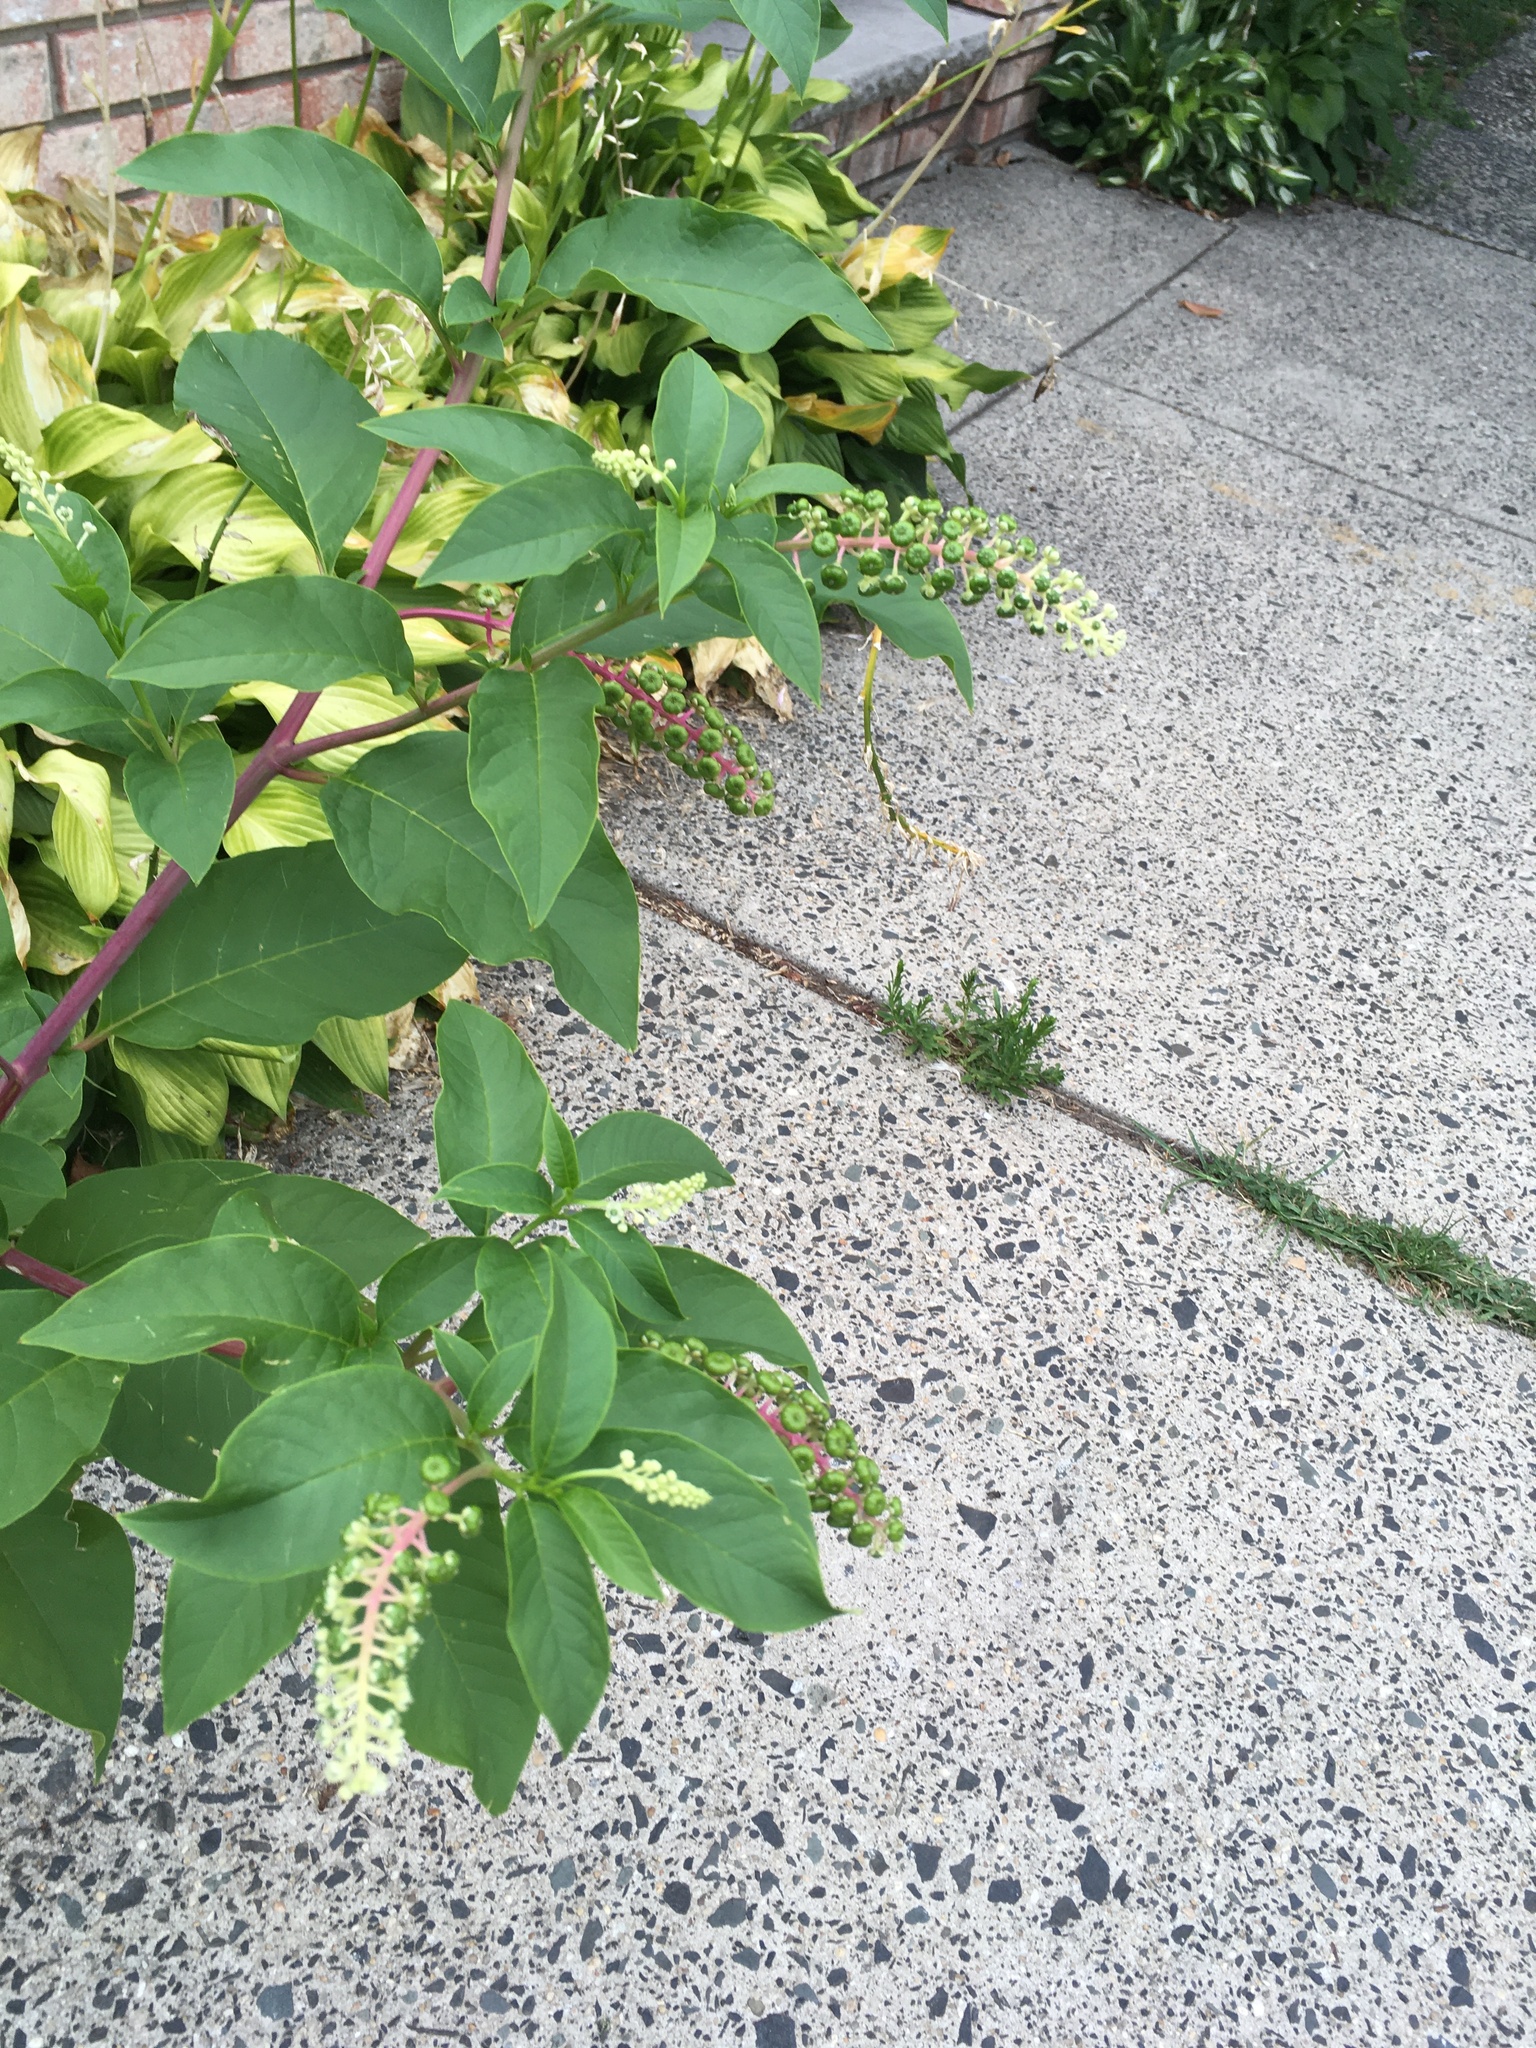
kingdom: Plantae
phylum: Tracheophyta
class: Magnoliopsida
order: Caryophyllales
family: Phytolaccaceae
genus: Phytolacca
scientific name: Phytolacca americana
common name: American pokeweed
